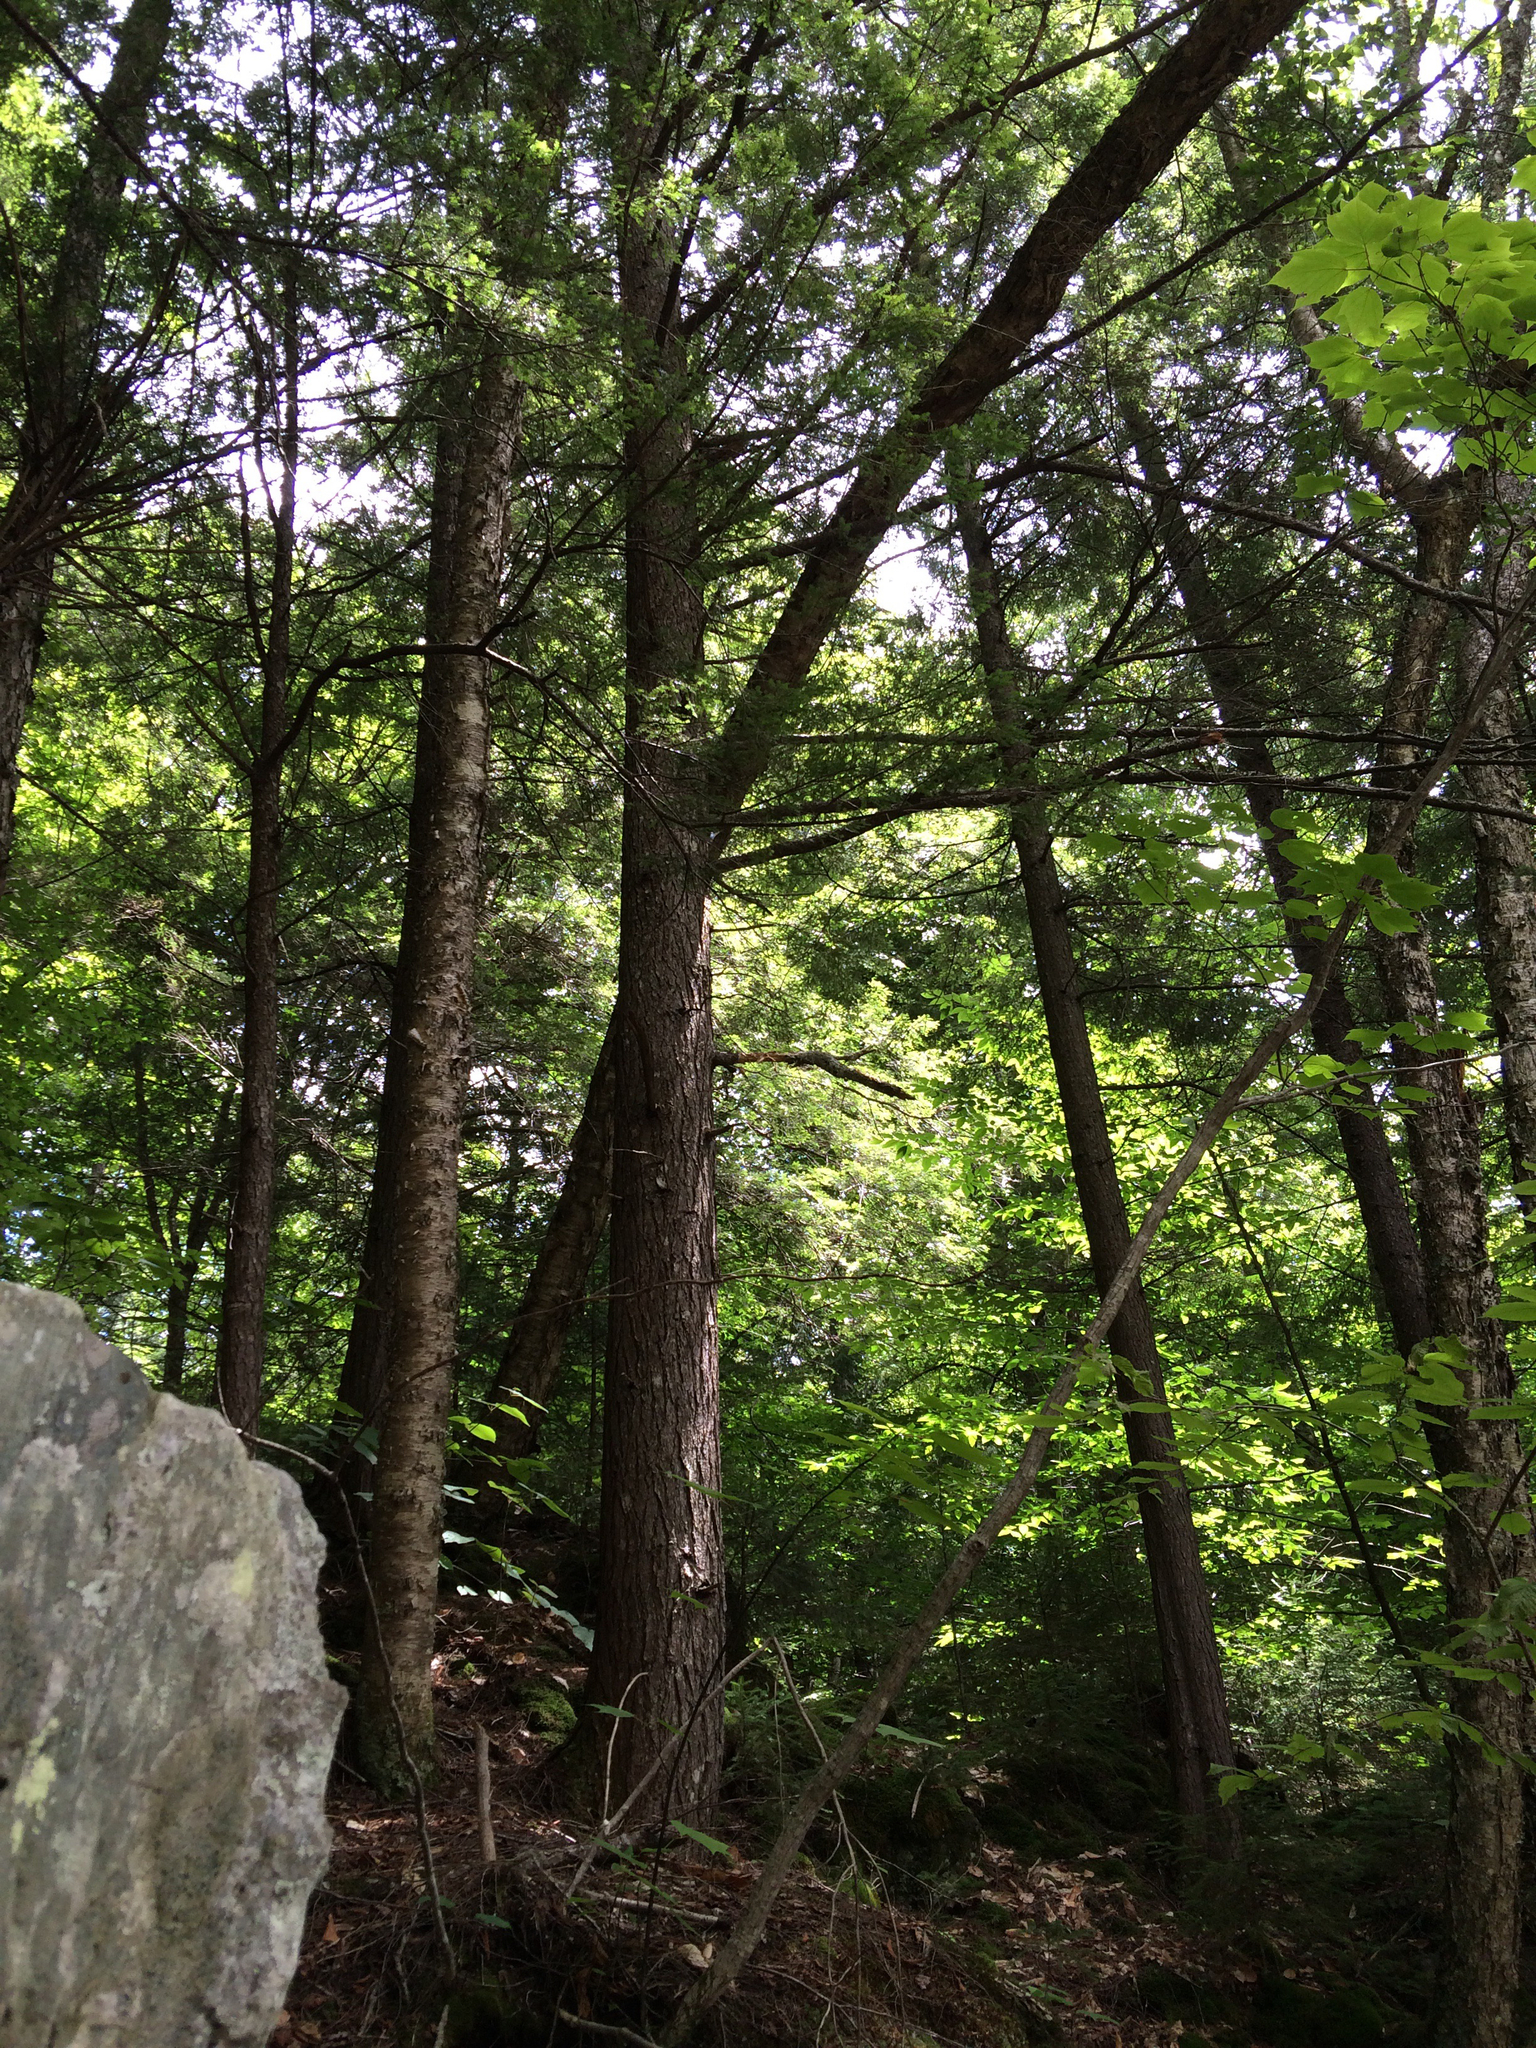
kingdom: Plantae
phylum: Tracheophyta
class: Pinopsida
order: Pinales
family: Pinaceae
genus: Tsuga
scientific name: Tsuga canadensis
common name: Eastern hemlock
